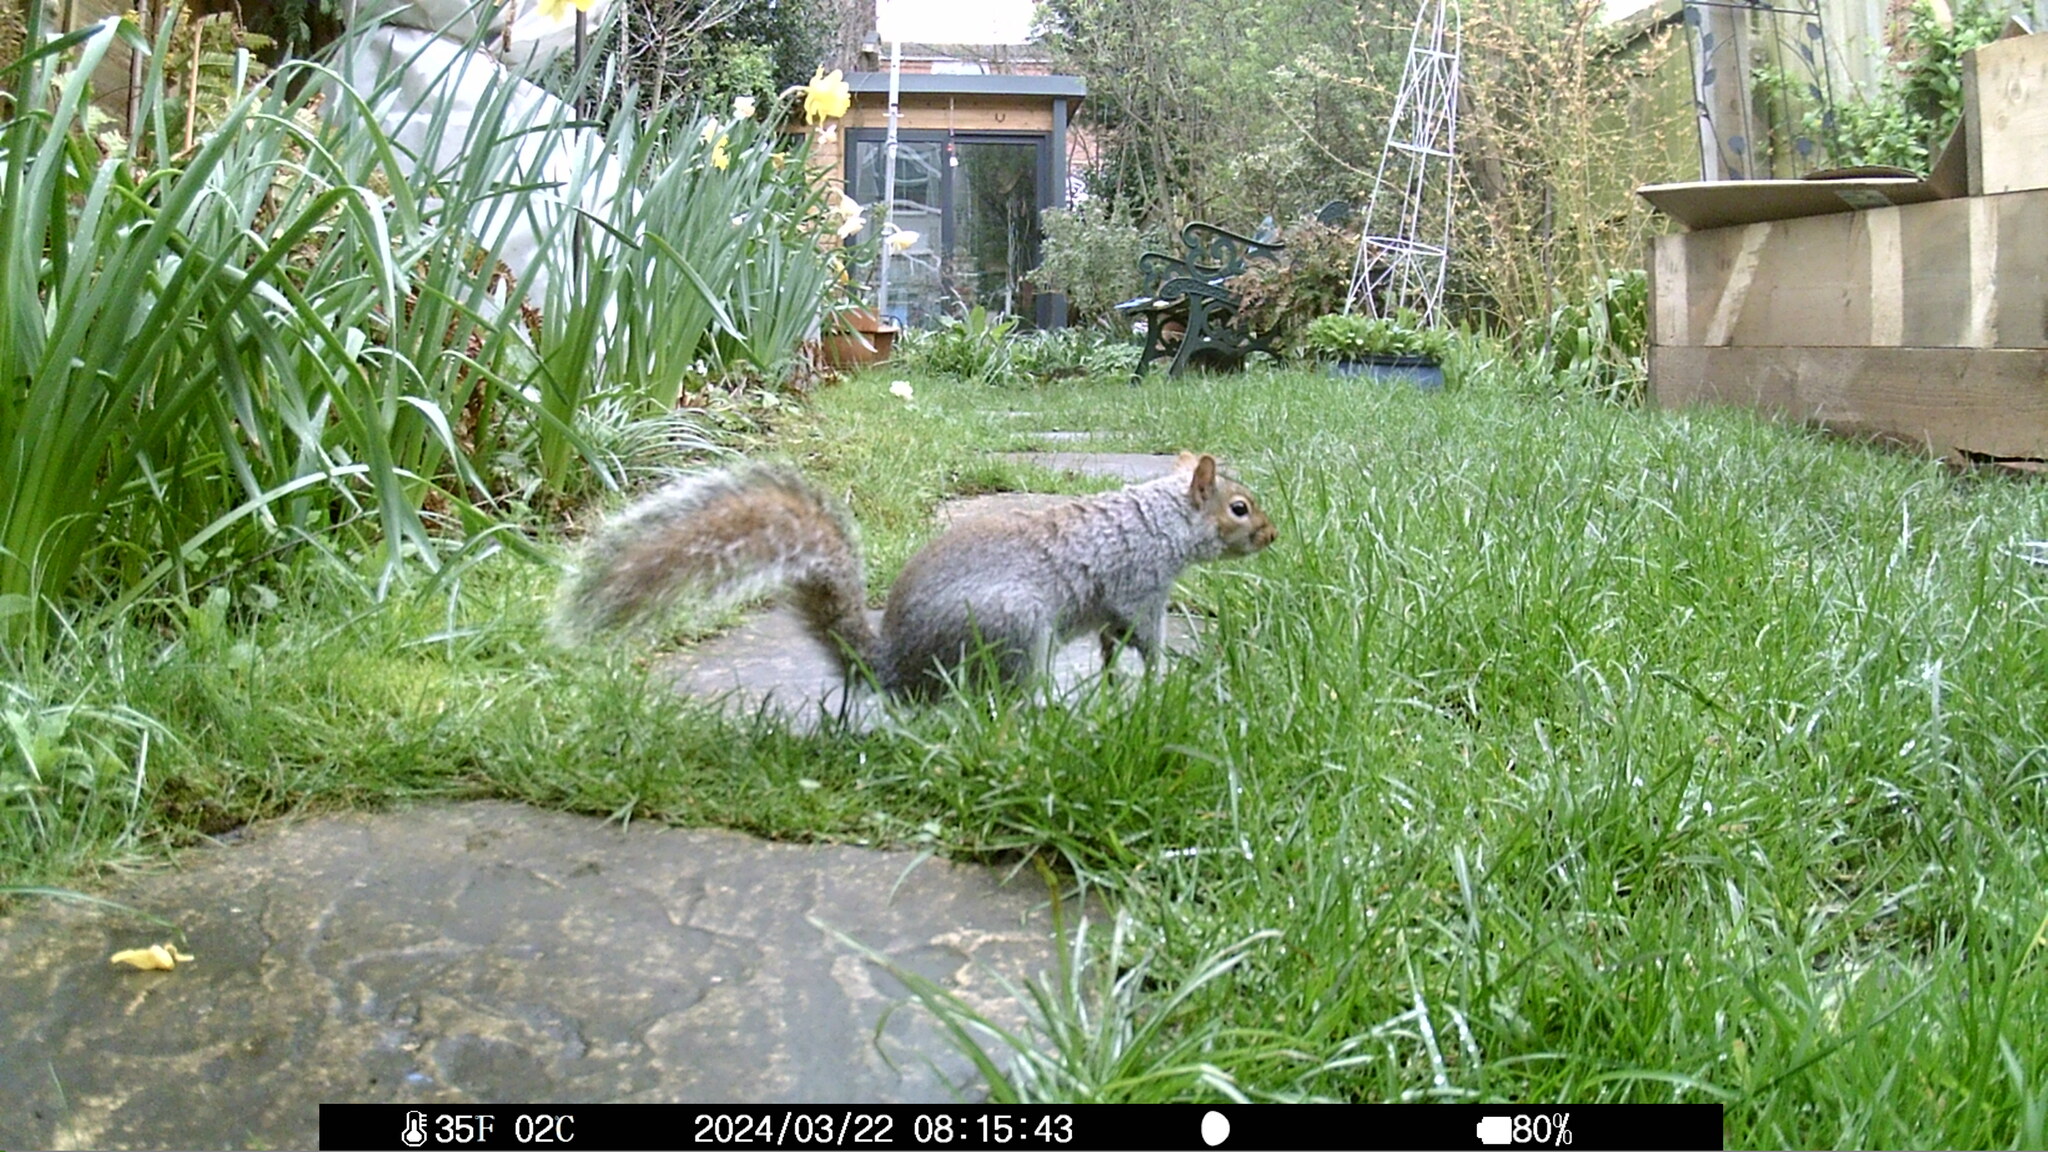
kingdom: Animalia
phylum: Chordata
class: Mammalia
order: Rodentia
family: Sciuridae
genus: Sciurus
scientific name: Sciurus carolinensis
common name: Eastern gray squirrel
